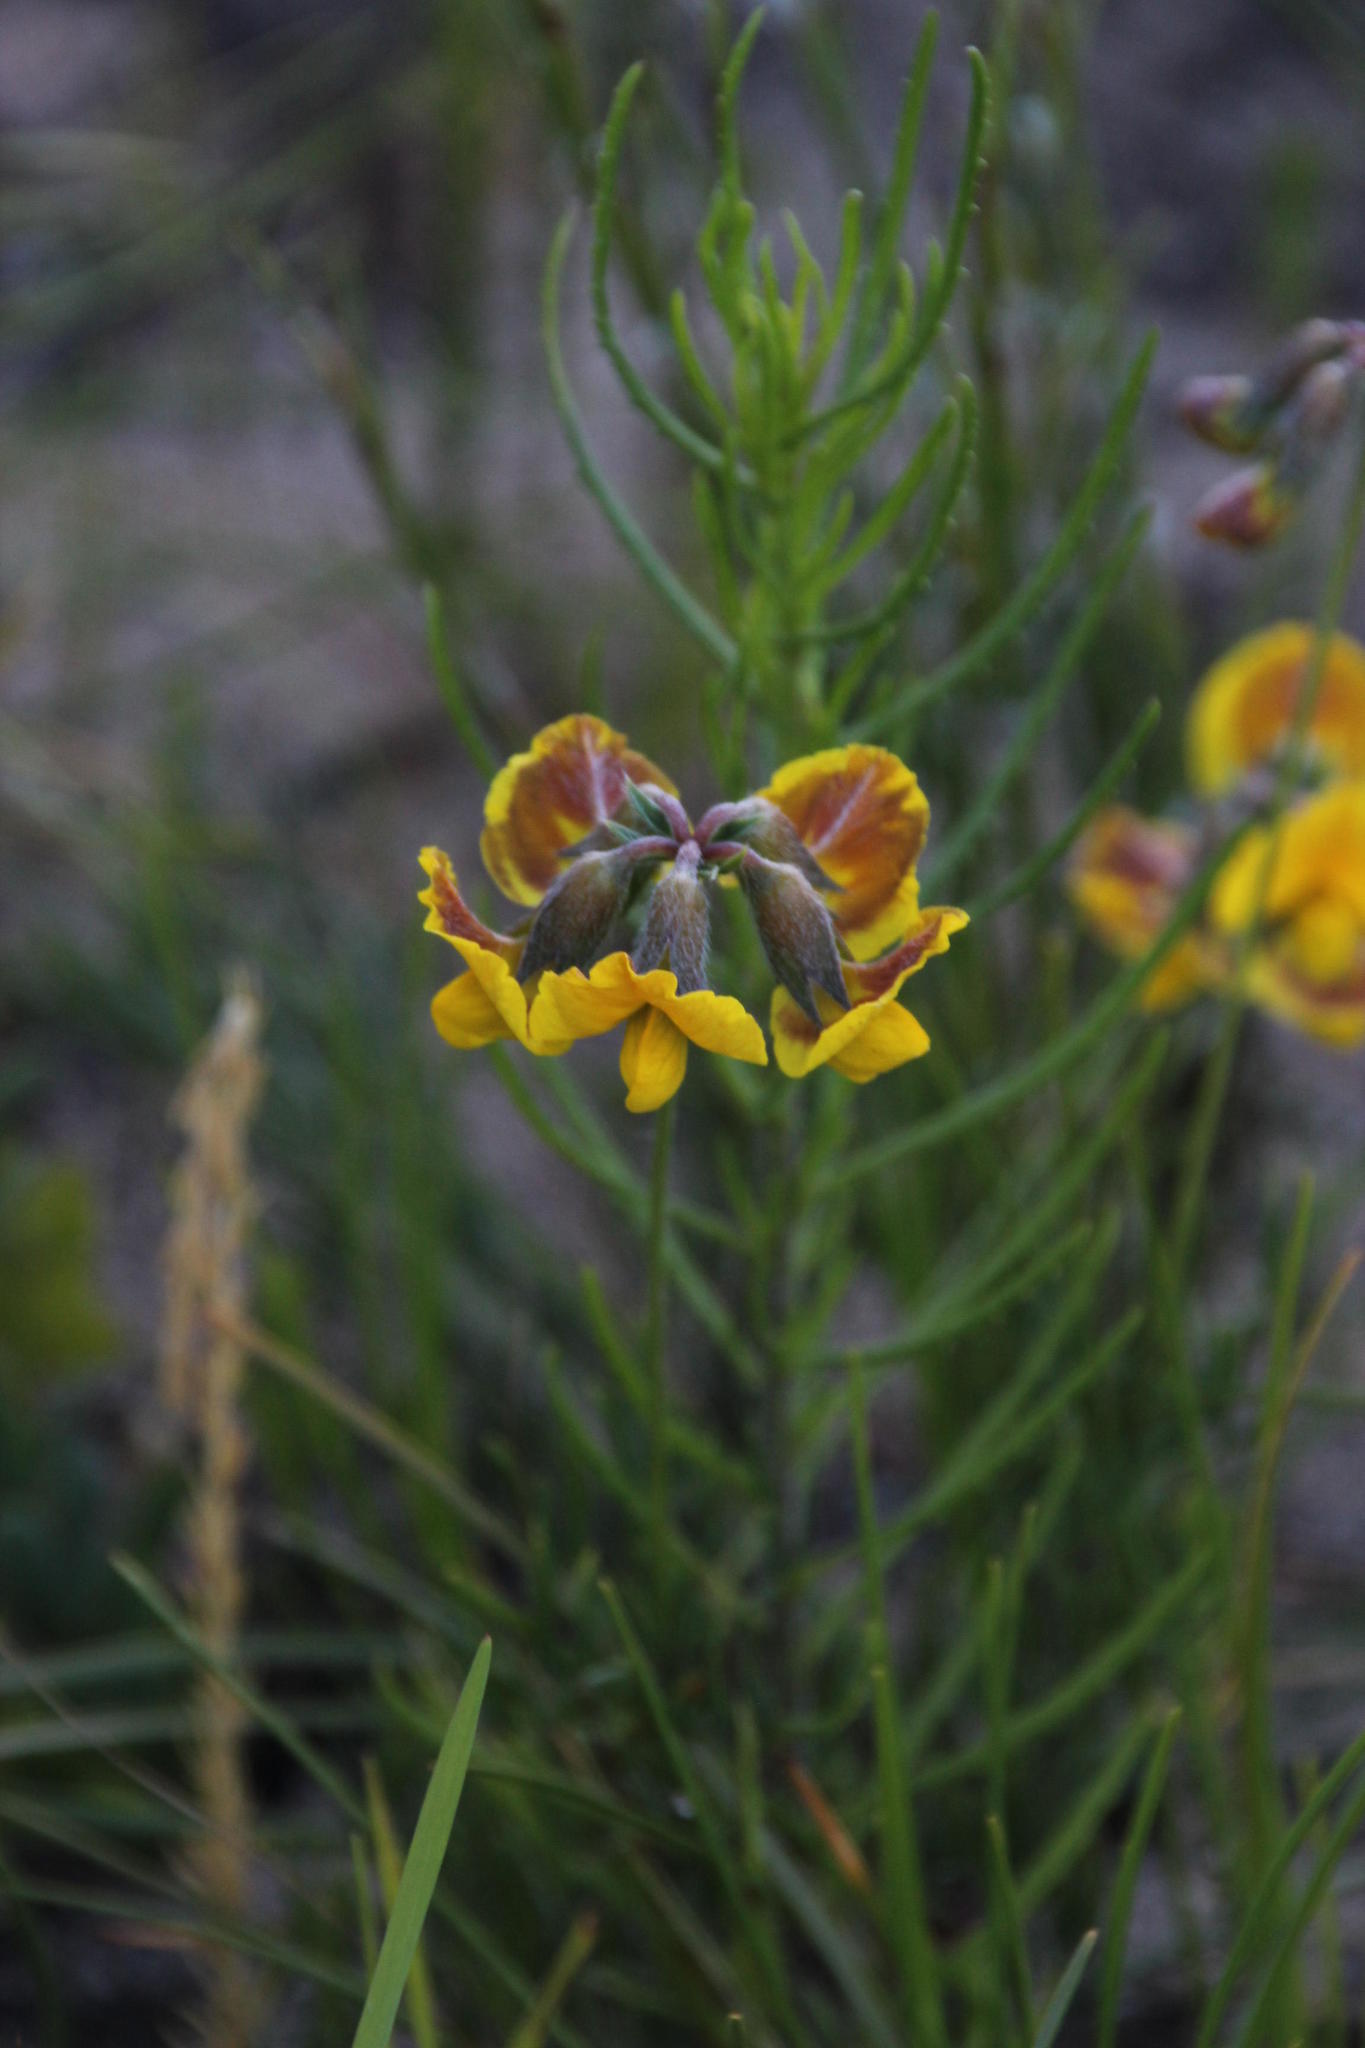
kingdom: Plantae
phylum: Tracheophyta
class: Magnoliopsida
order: Fabales
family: Fabaceae
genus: Lotononis
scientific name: Lotononis fastigiata
